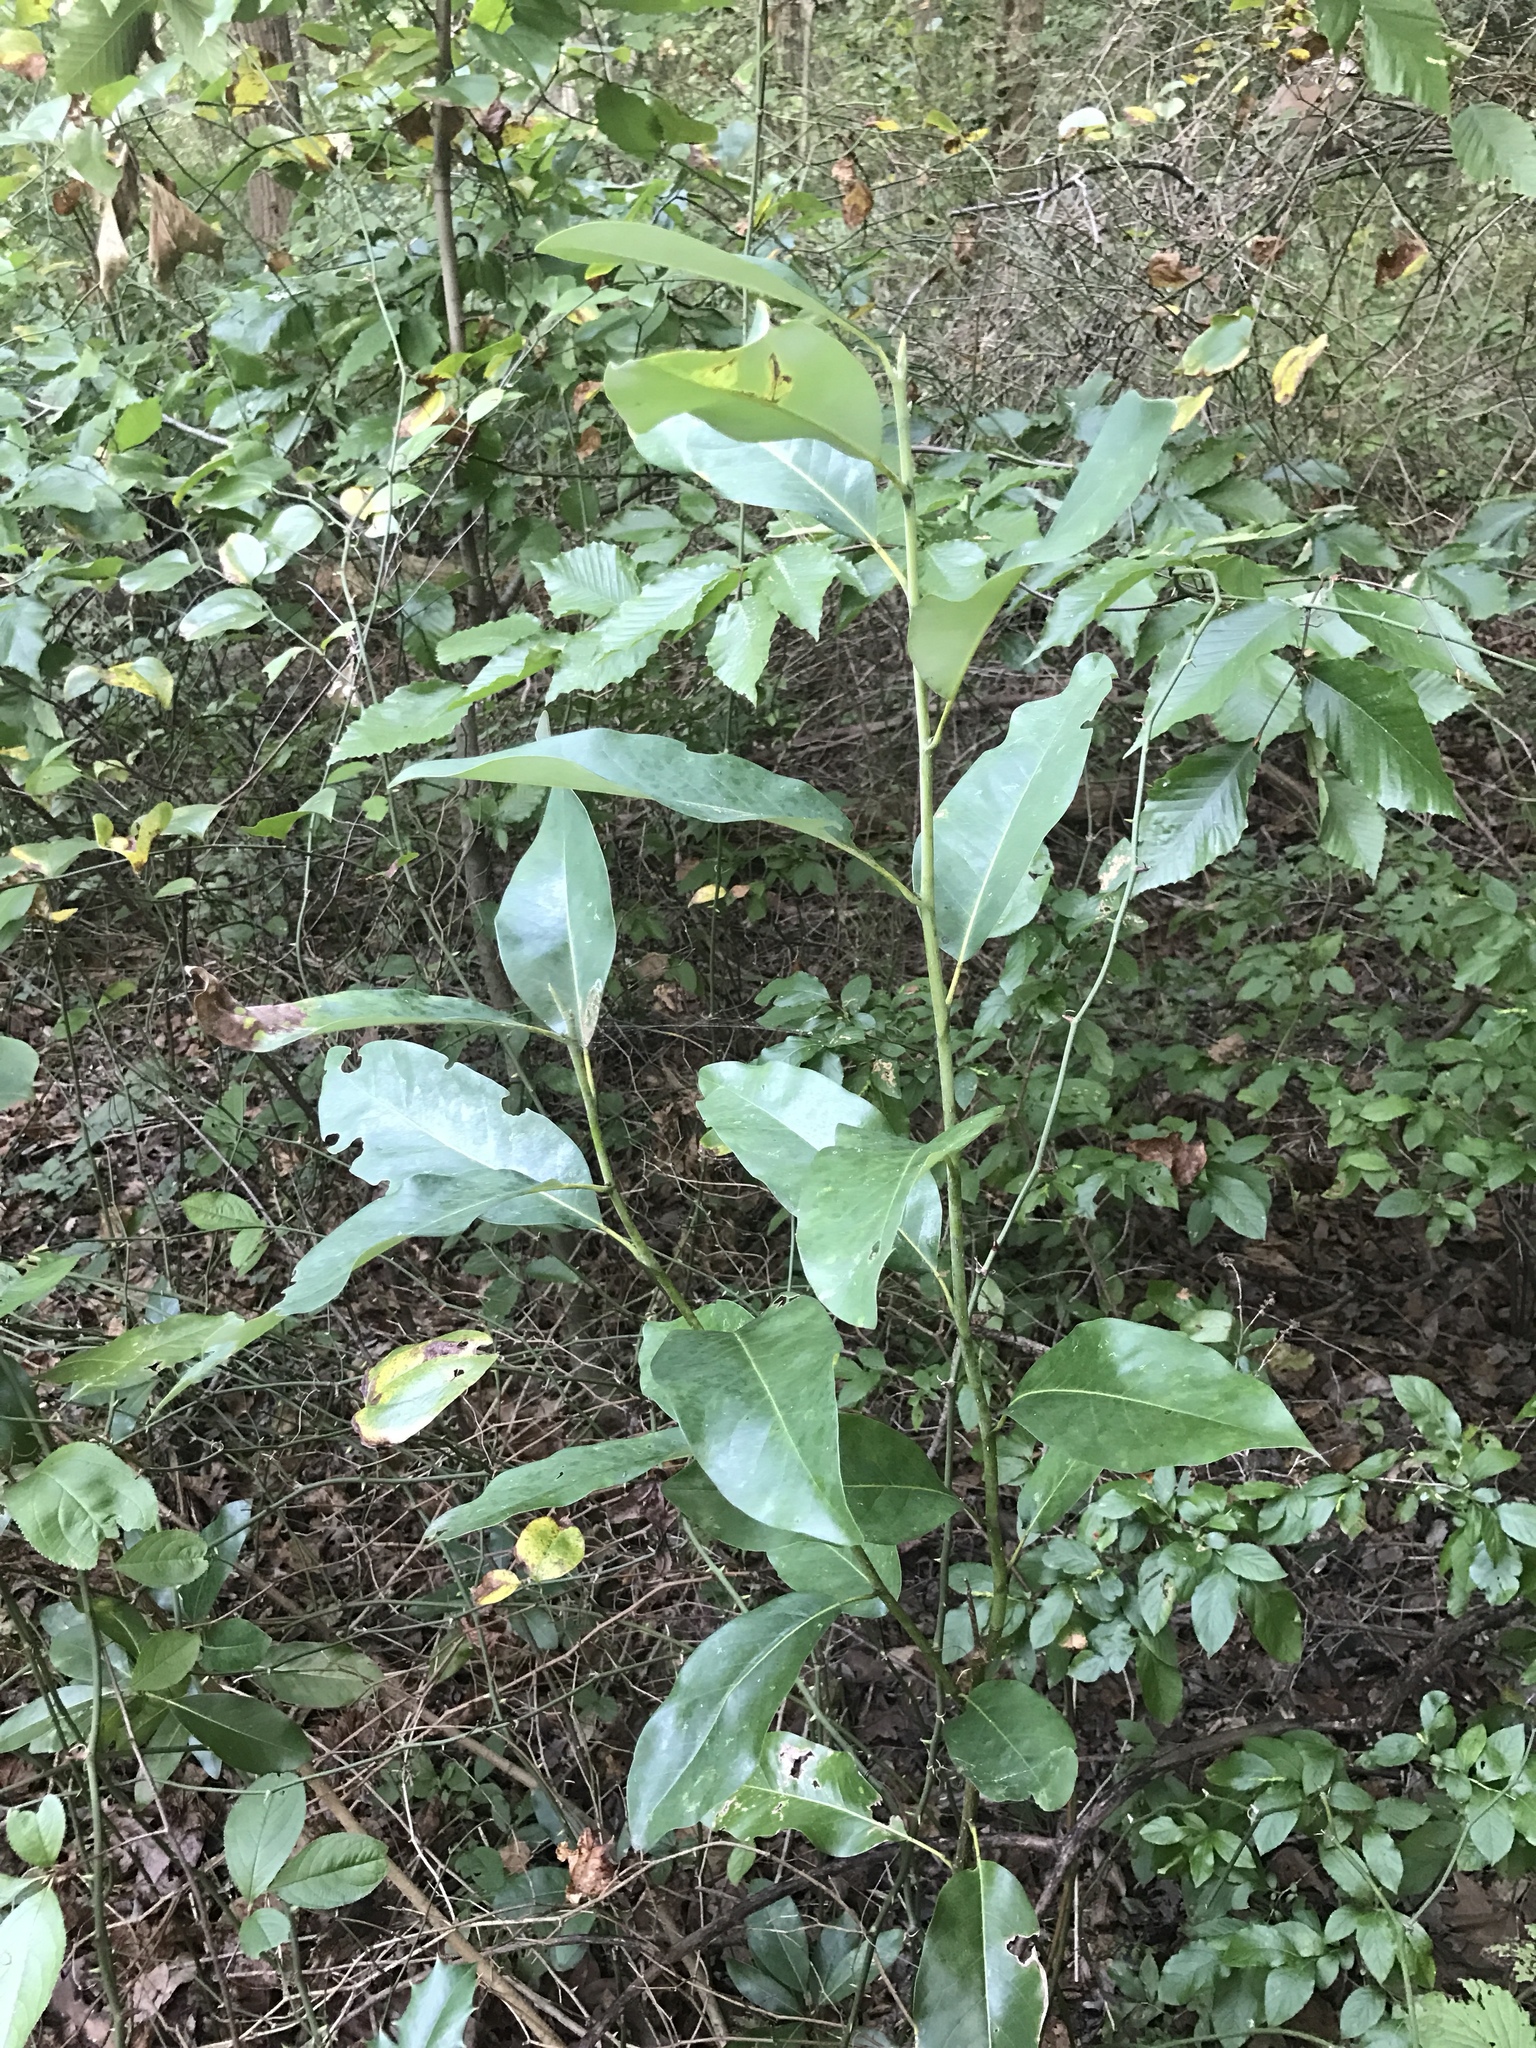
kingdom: Plantae
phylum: Tracheophyta
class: Magnoliopsida
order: Magnoliales
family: Magnoliaceae
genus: Magnolia
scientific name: Magnolia virginiana
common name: Swamp bay
